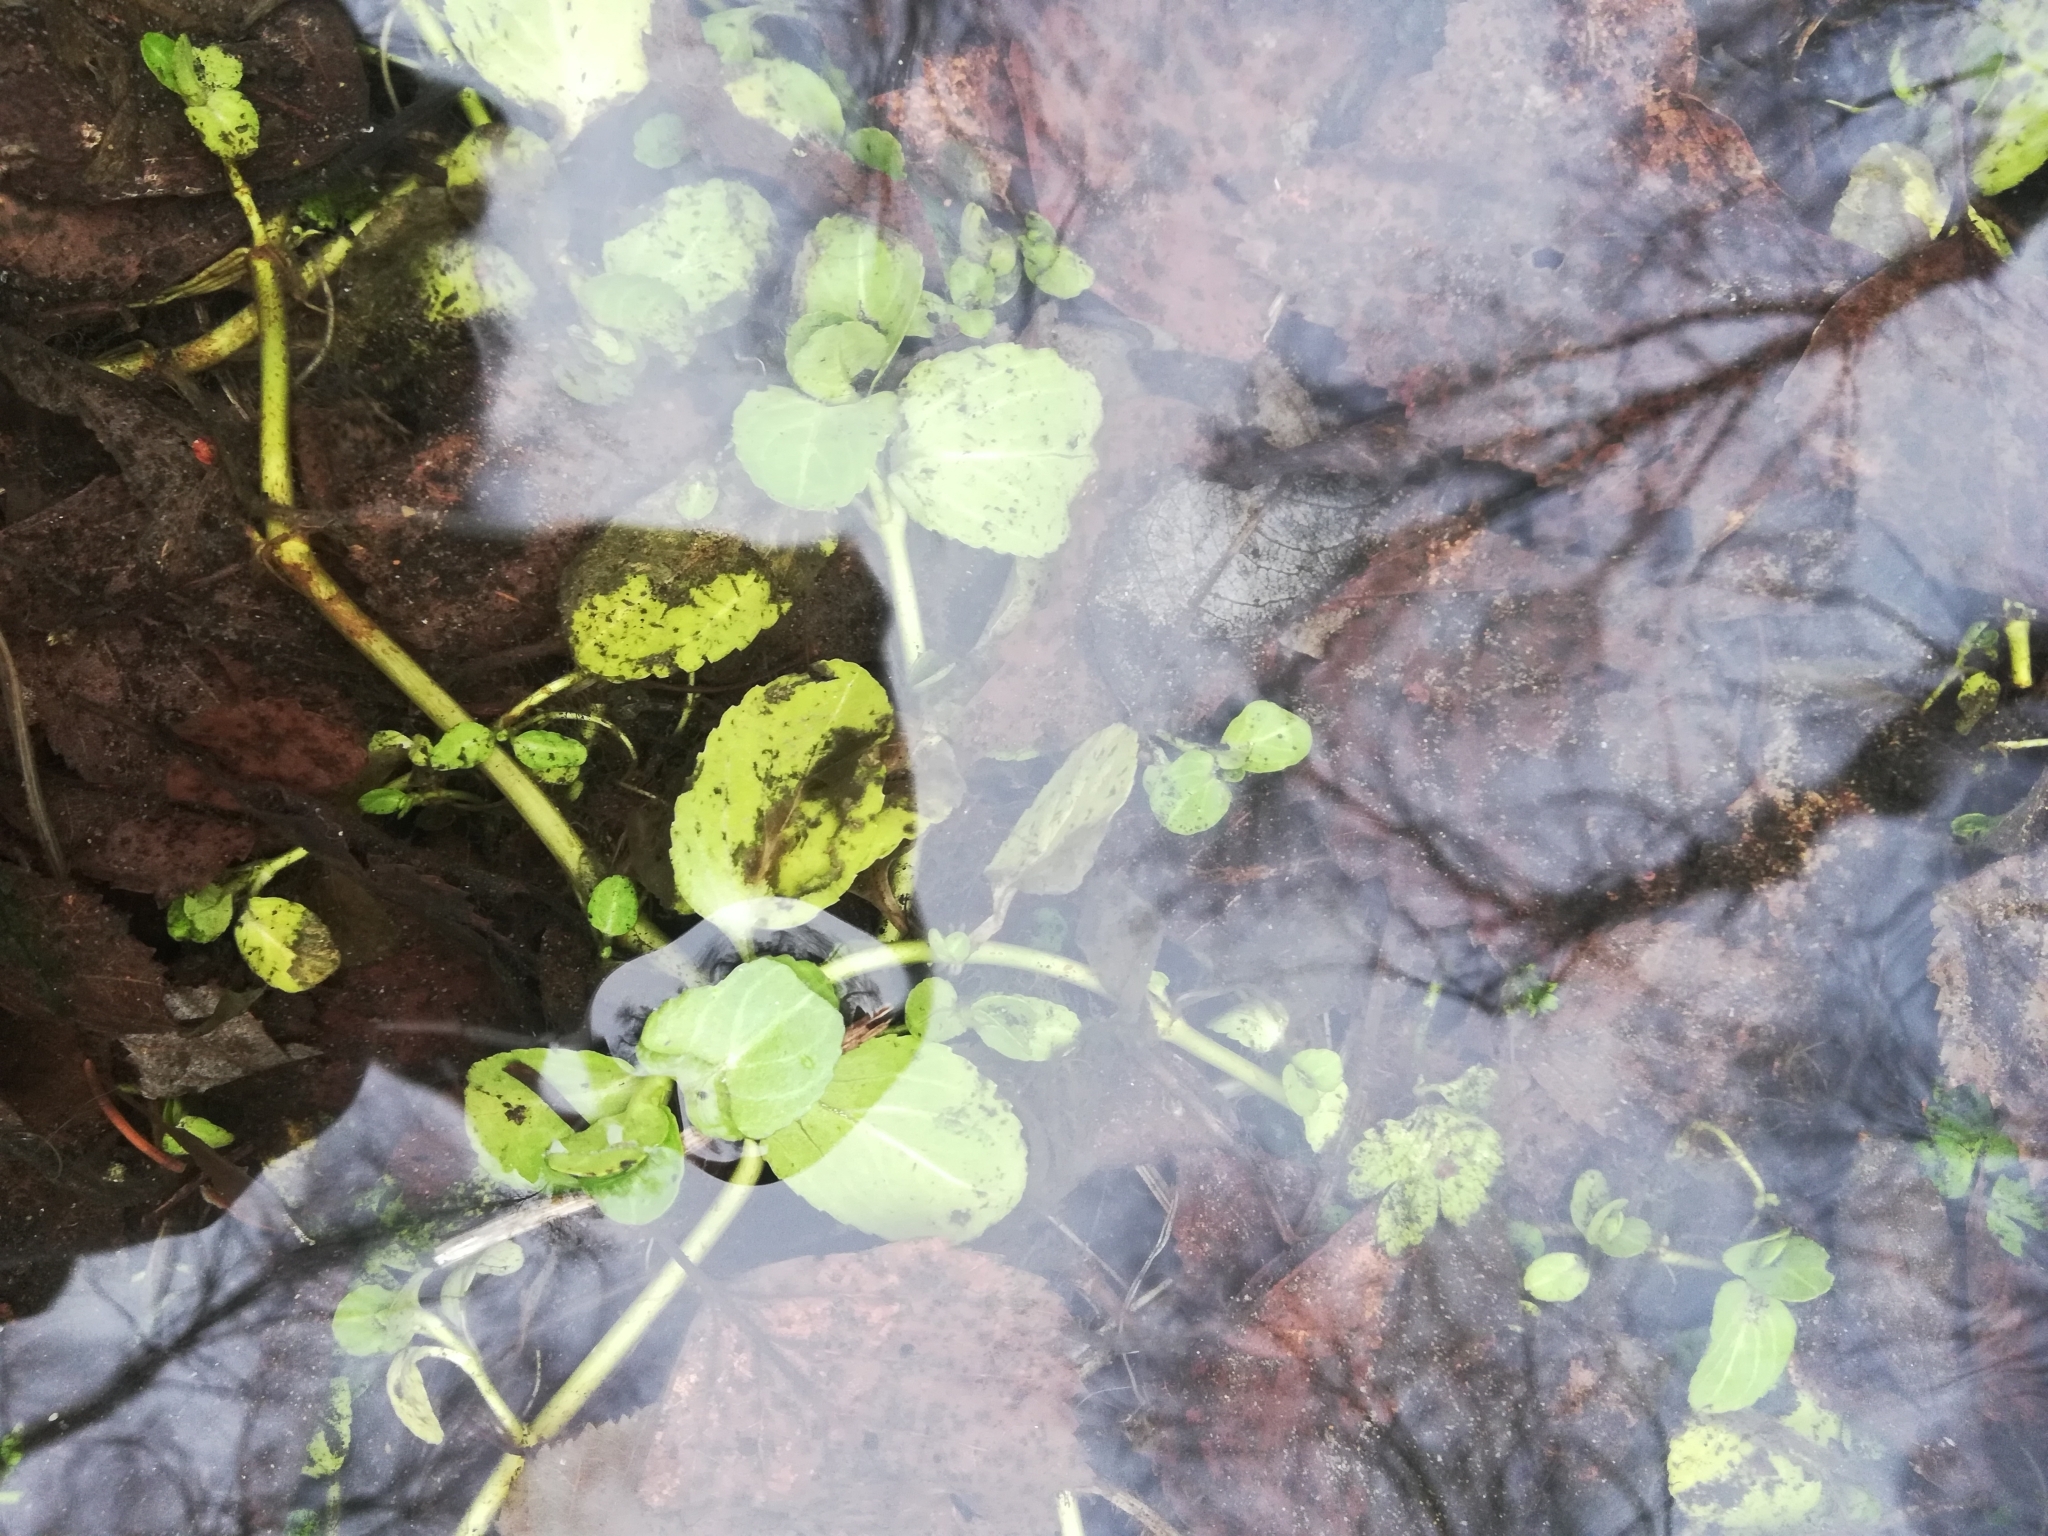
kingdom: Plantae
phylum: Tracheophyta
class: Magnoliopsida
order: Lamiales
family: Plantaginaceae
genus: Veronica
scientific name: Veronica beccabunga
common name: Brooklime
